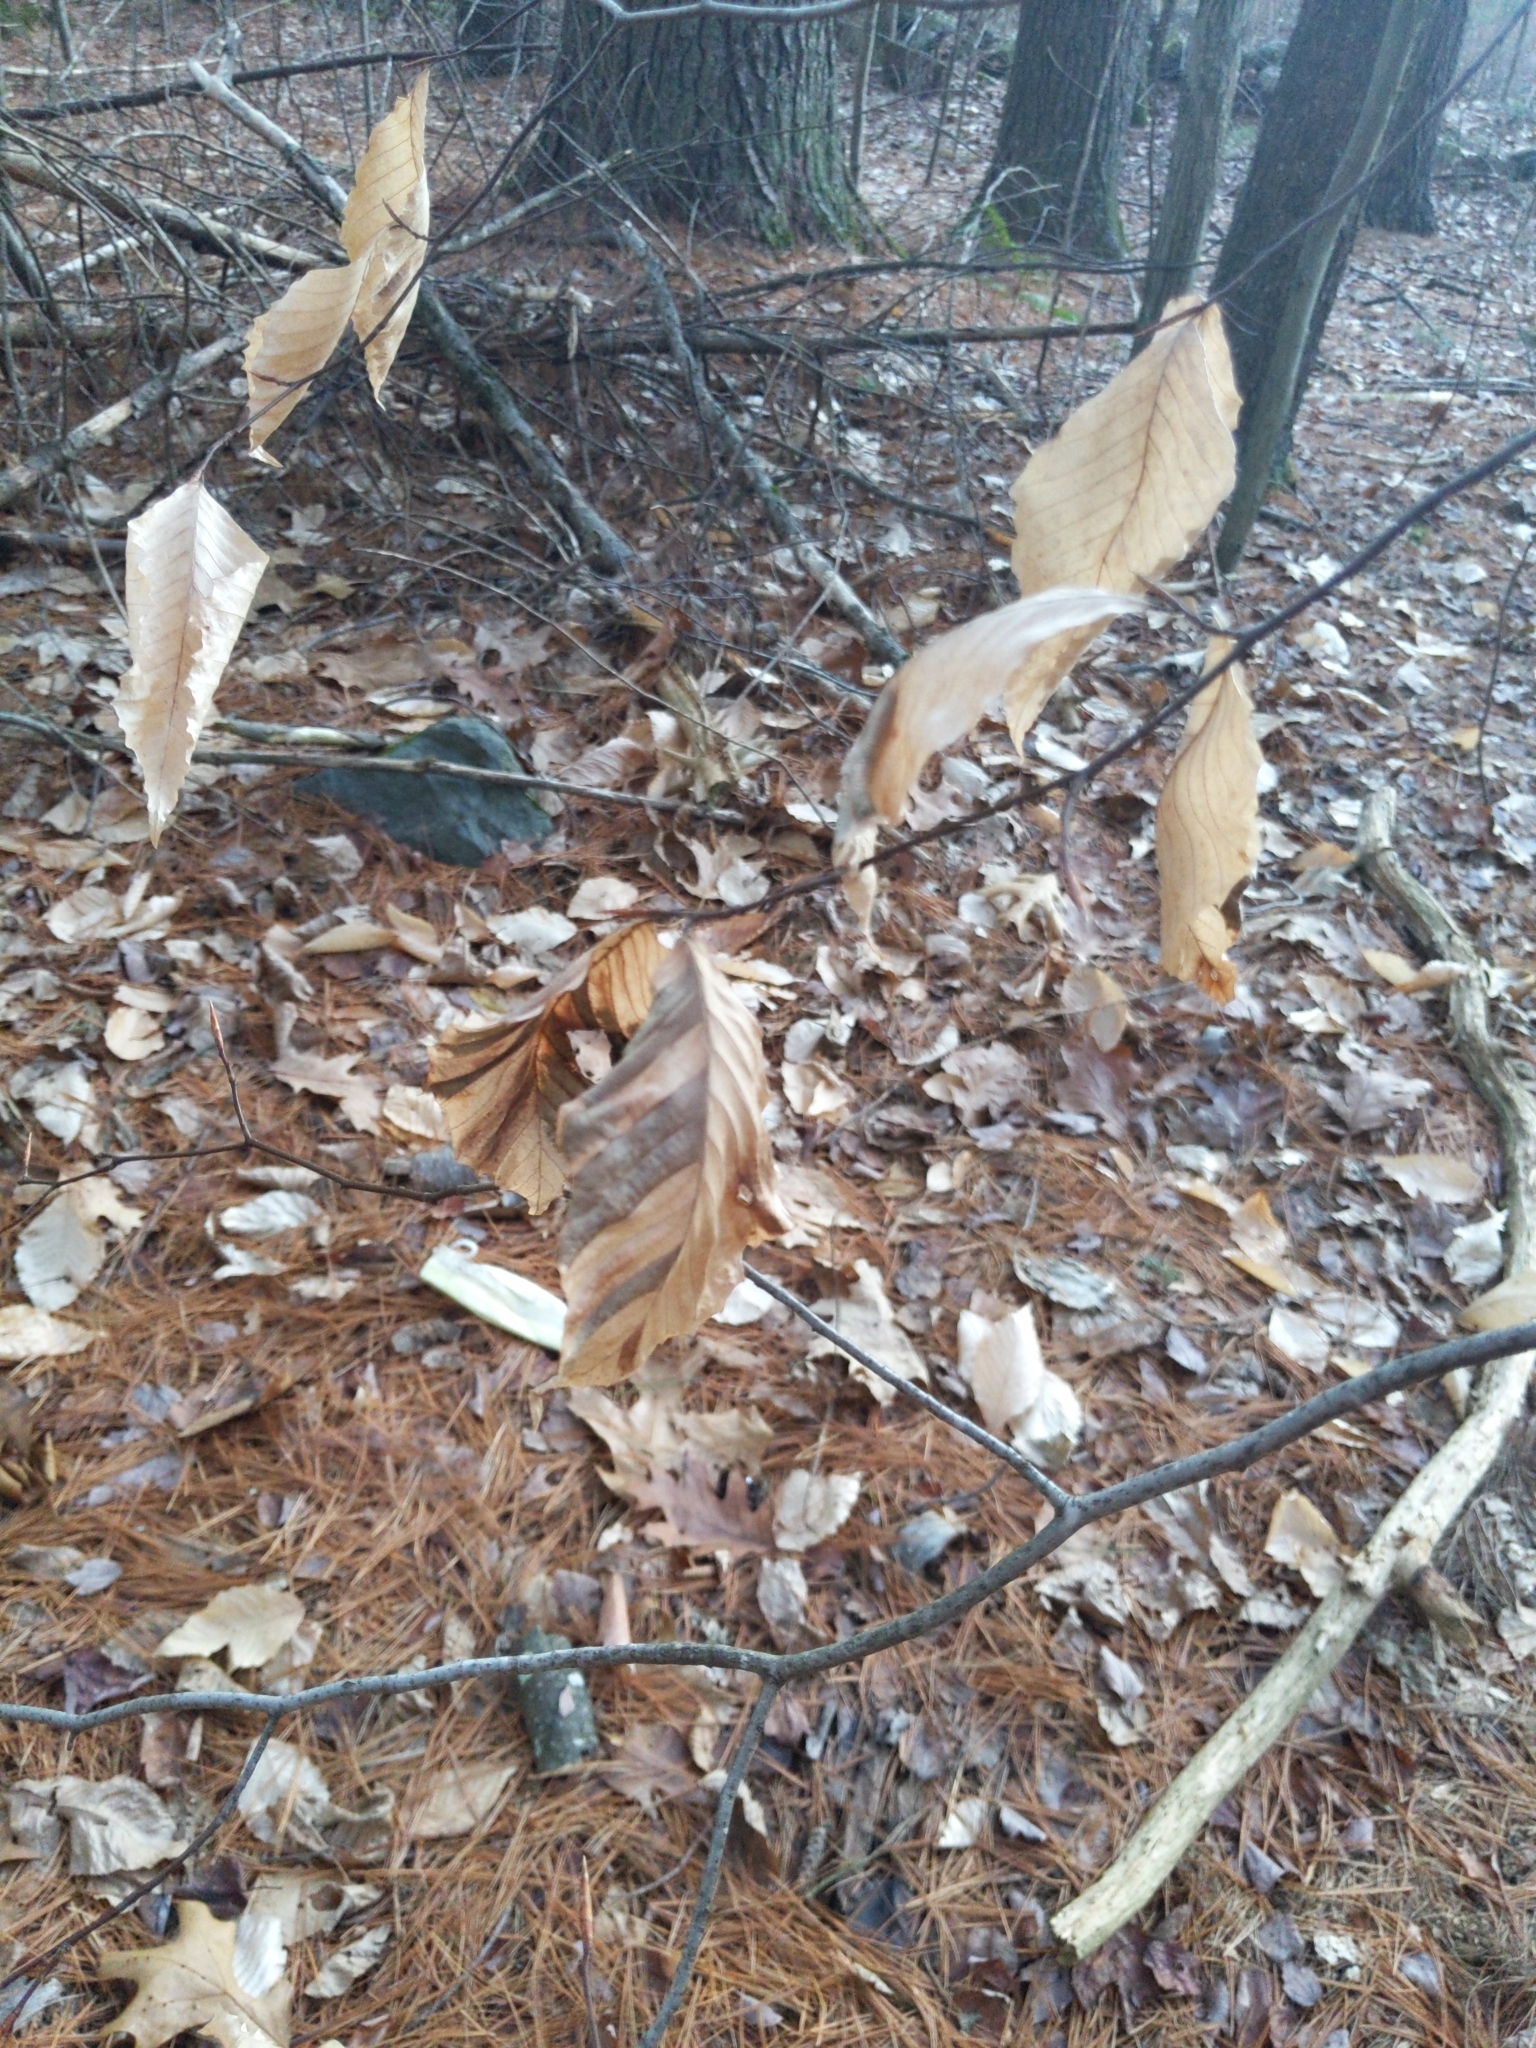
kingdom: Animalia
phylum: Nematoda
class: Chromadorea
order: Rhabditida
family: Anguinidae
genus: Litylenchus
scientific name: Litylenchus crenatae
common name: Beech leaf disease
